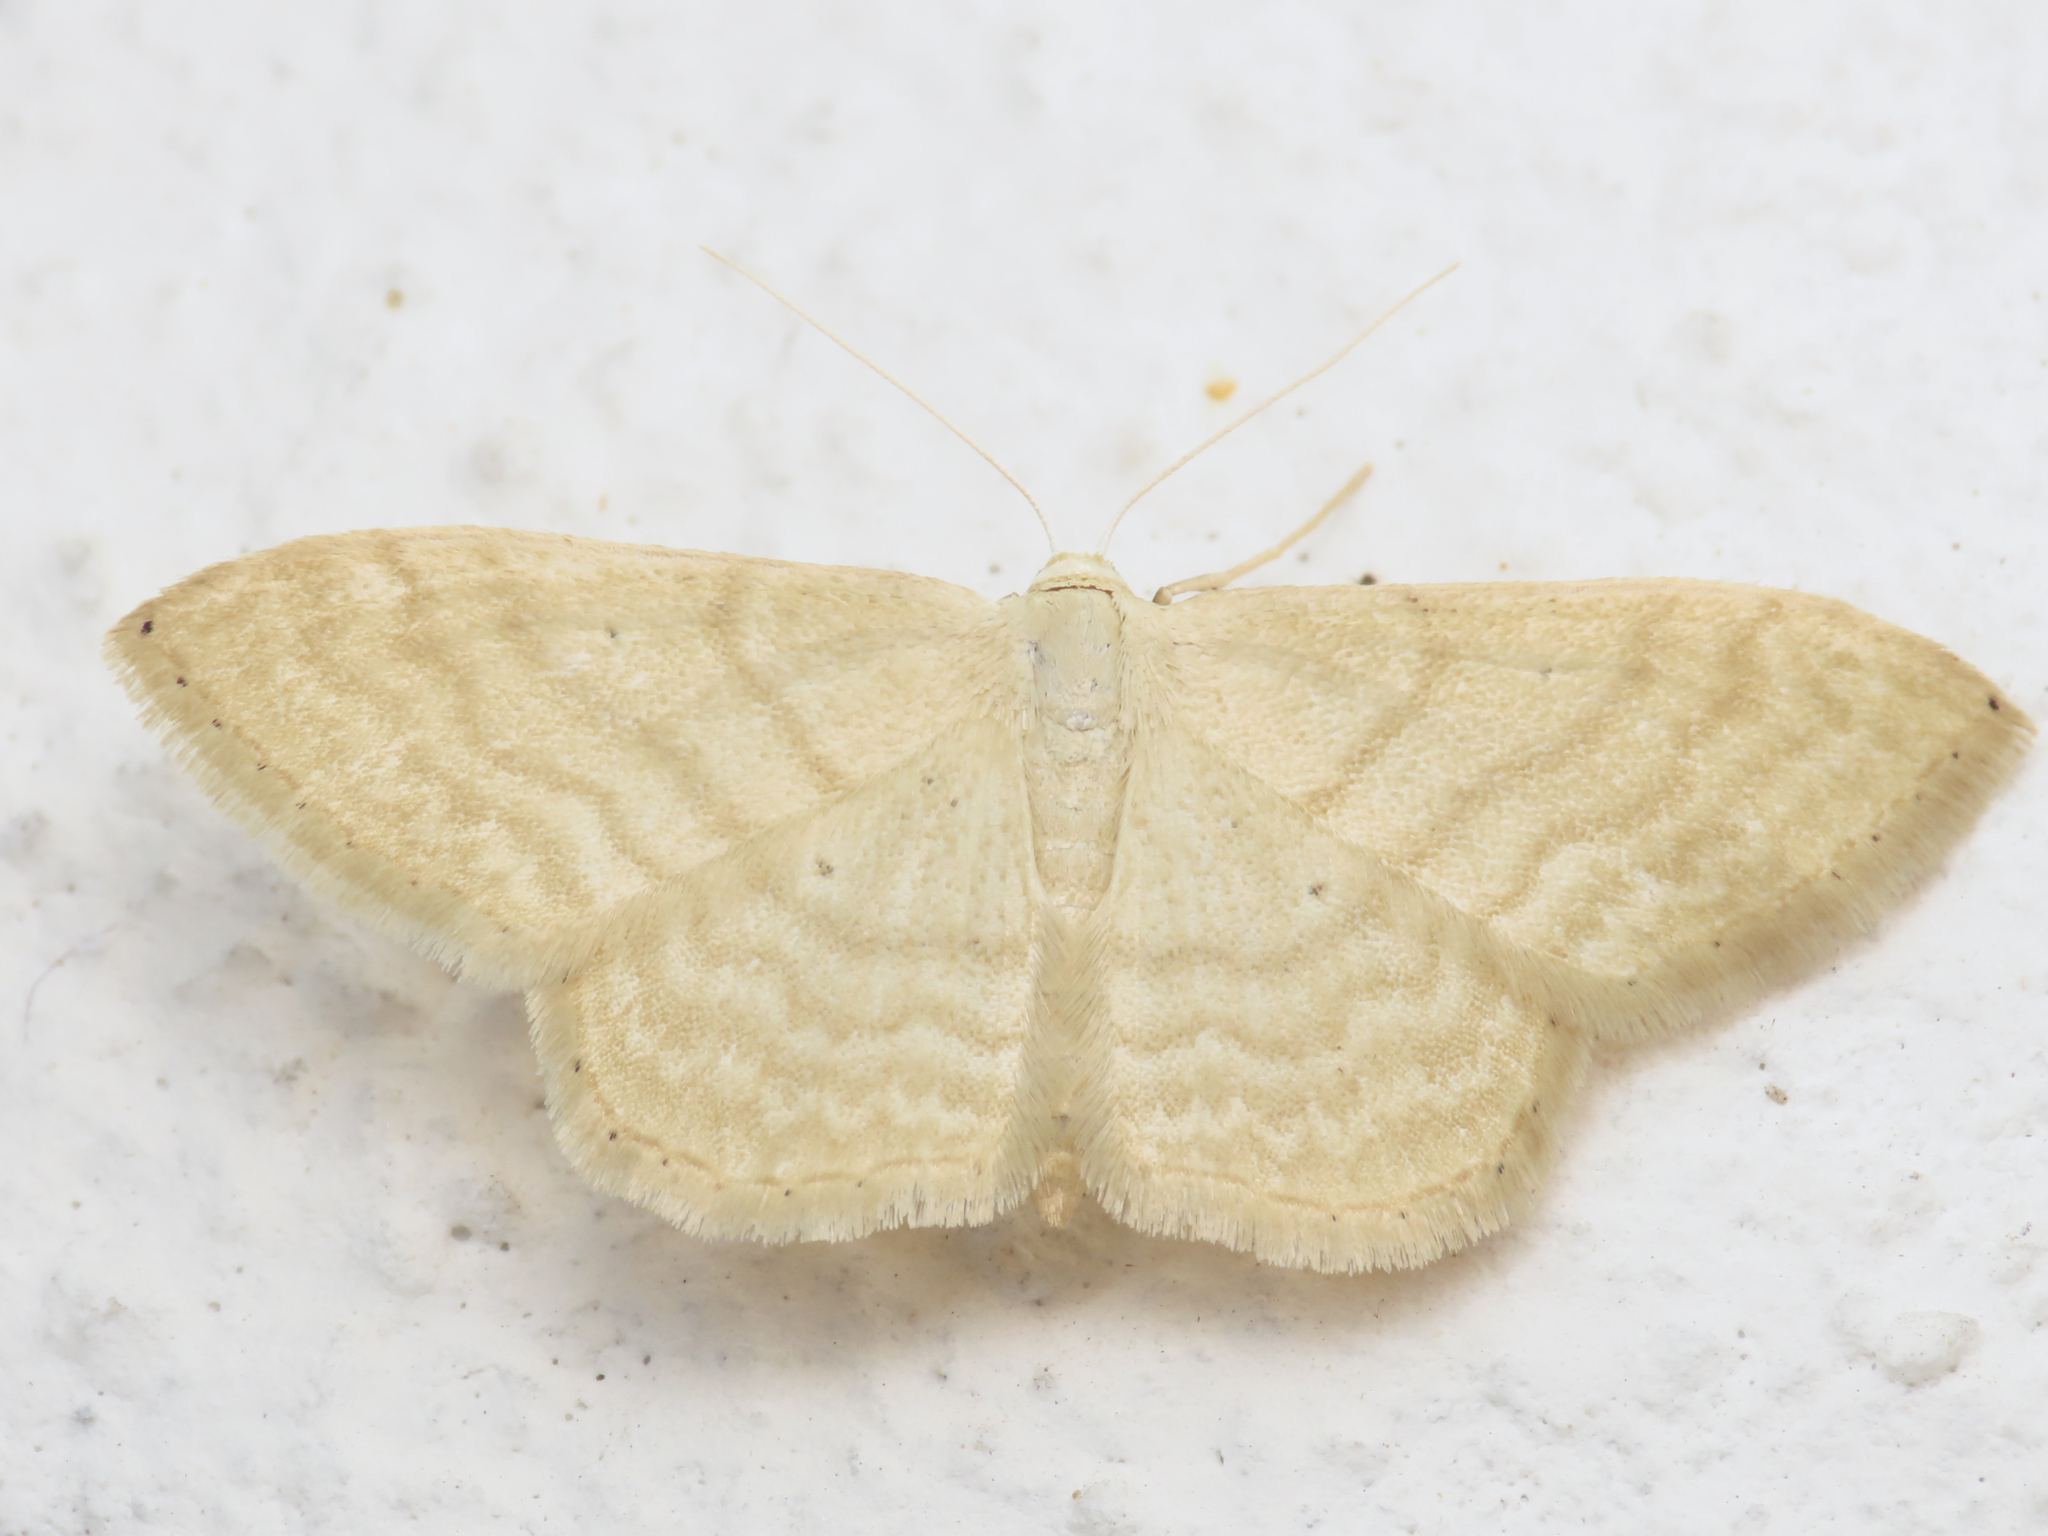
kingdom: Animalia
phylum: Arthropoda
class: Insecta
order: Lepidoptera
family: Geometridae
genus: Idaea
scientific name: Idaea consanguinaria
